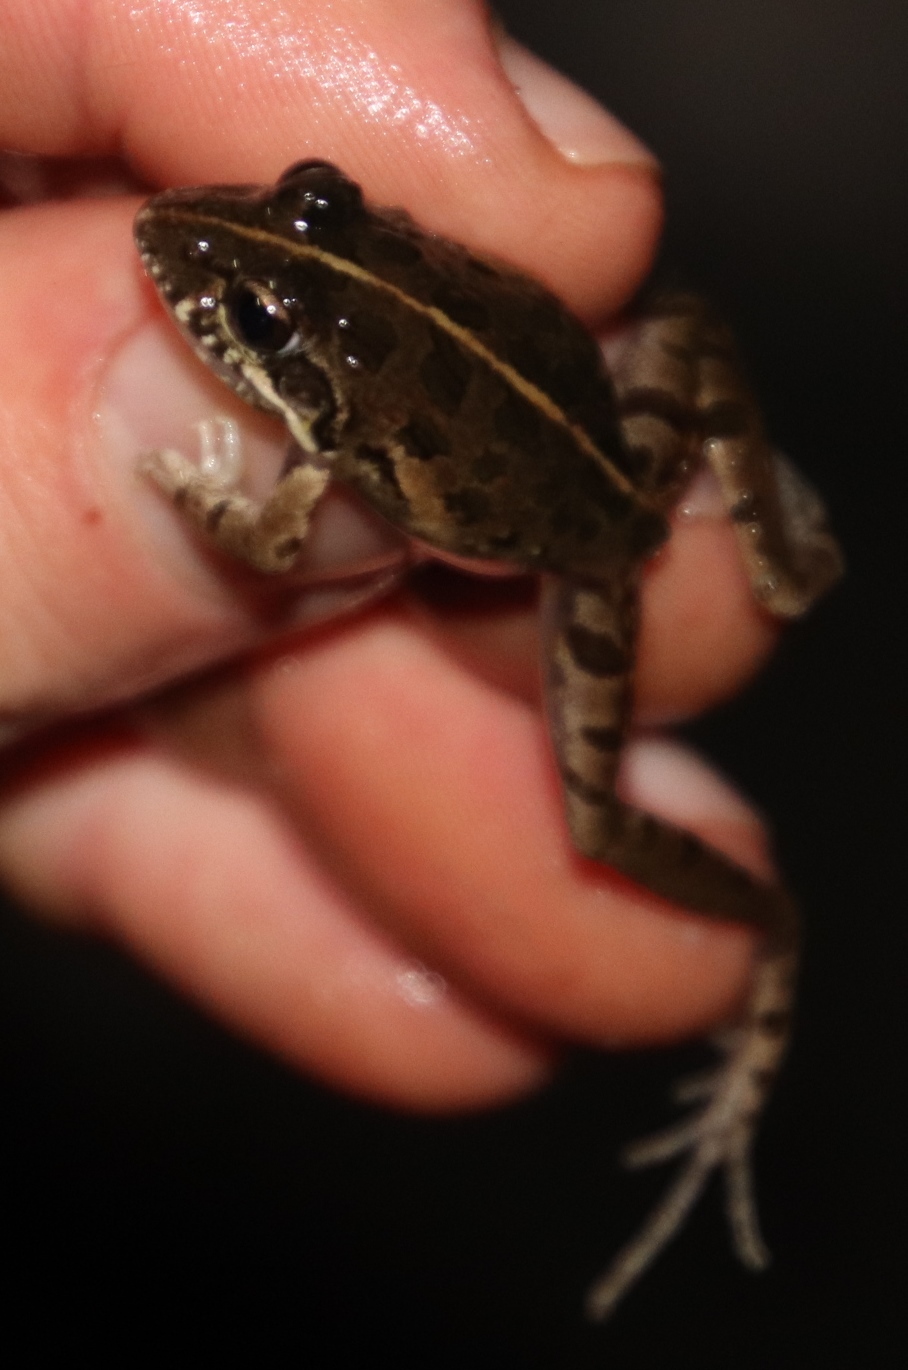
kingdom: Animalia
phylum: Chordata
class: Amphibia
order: Anura
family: Pyxicephalidae
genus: Strongylopus
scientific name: Strongylopus grayii
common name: Gray's stream frog
